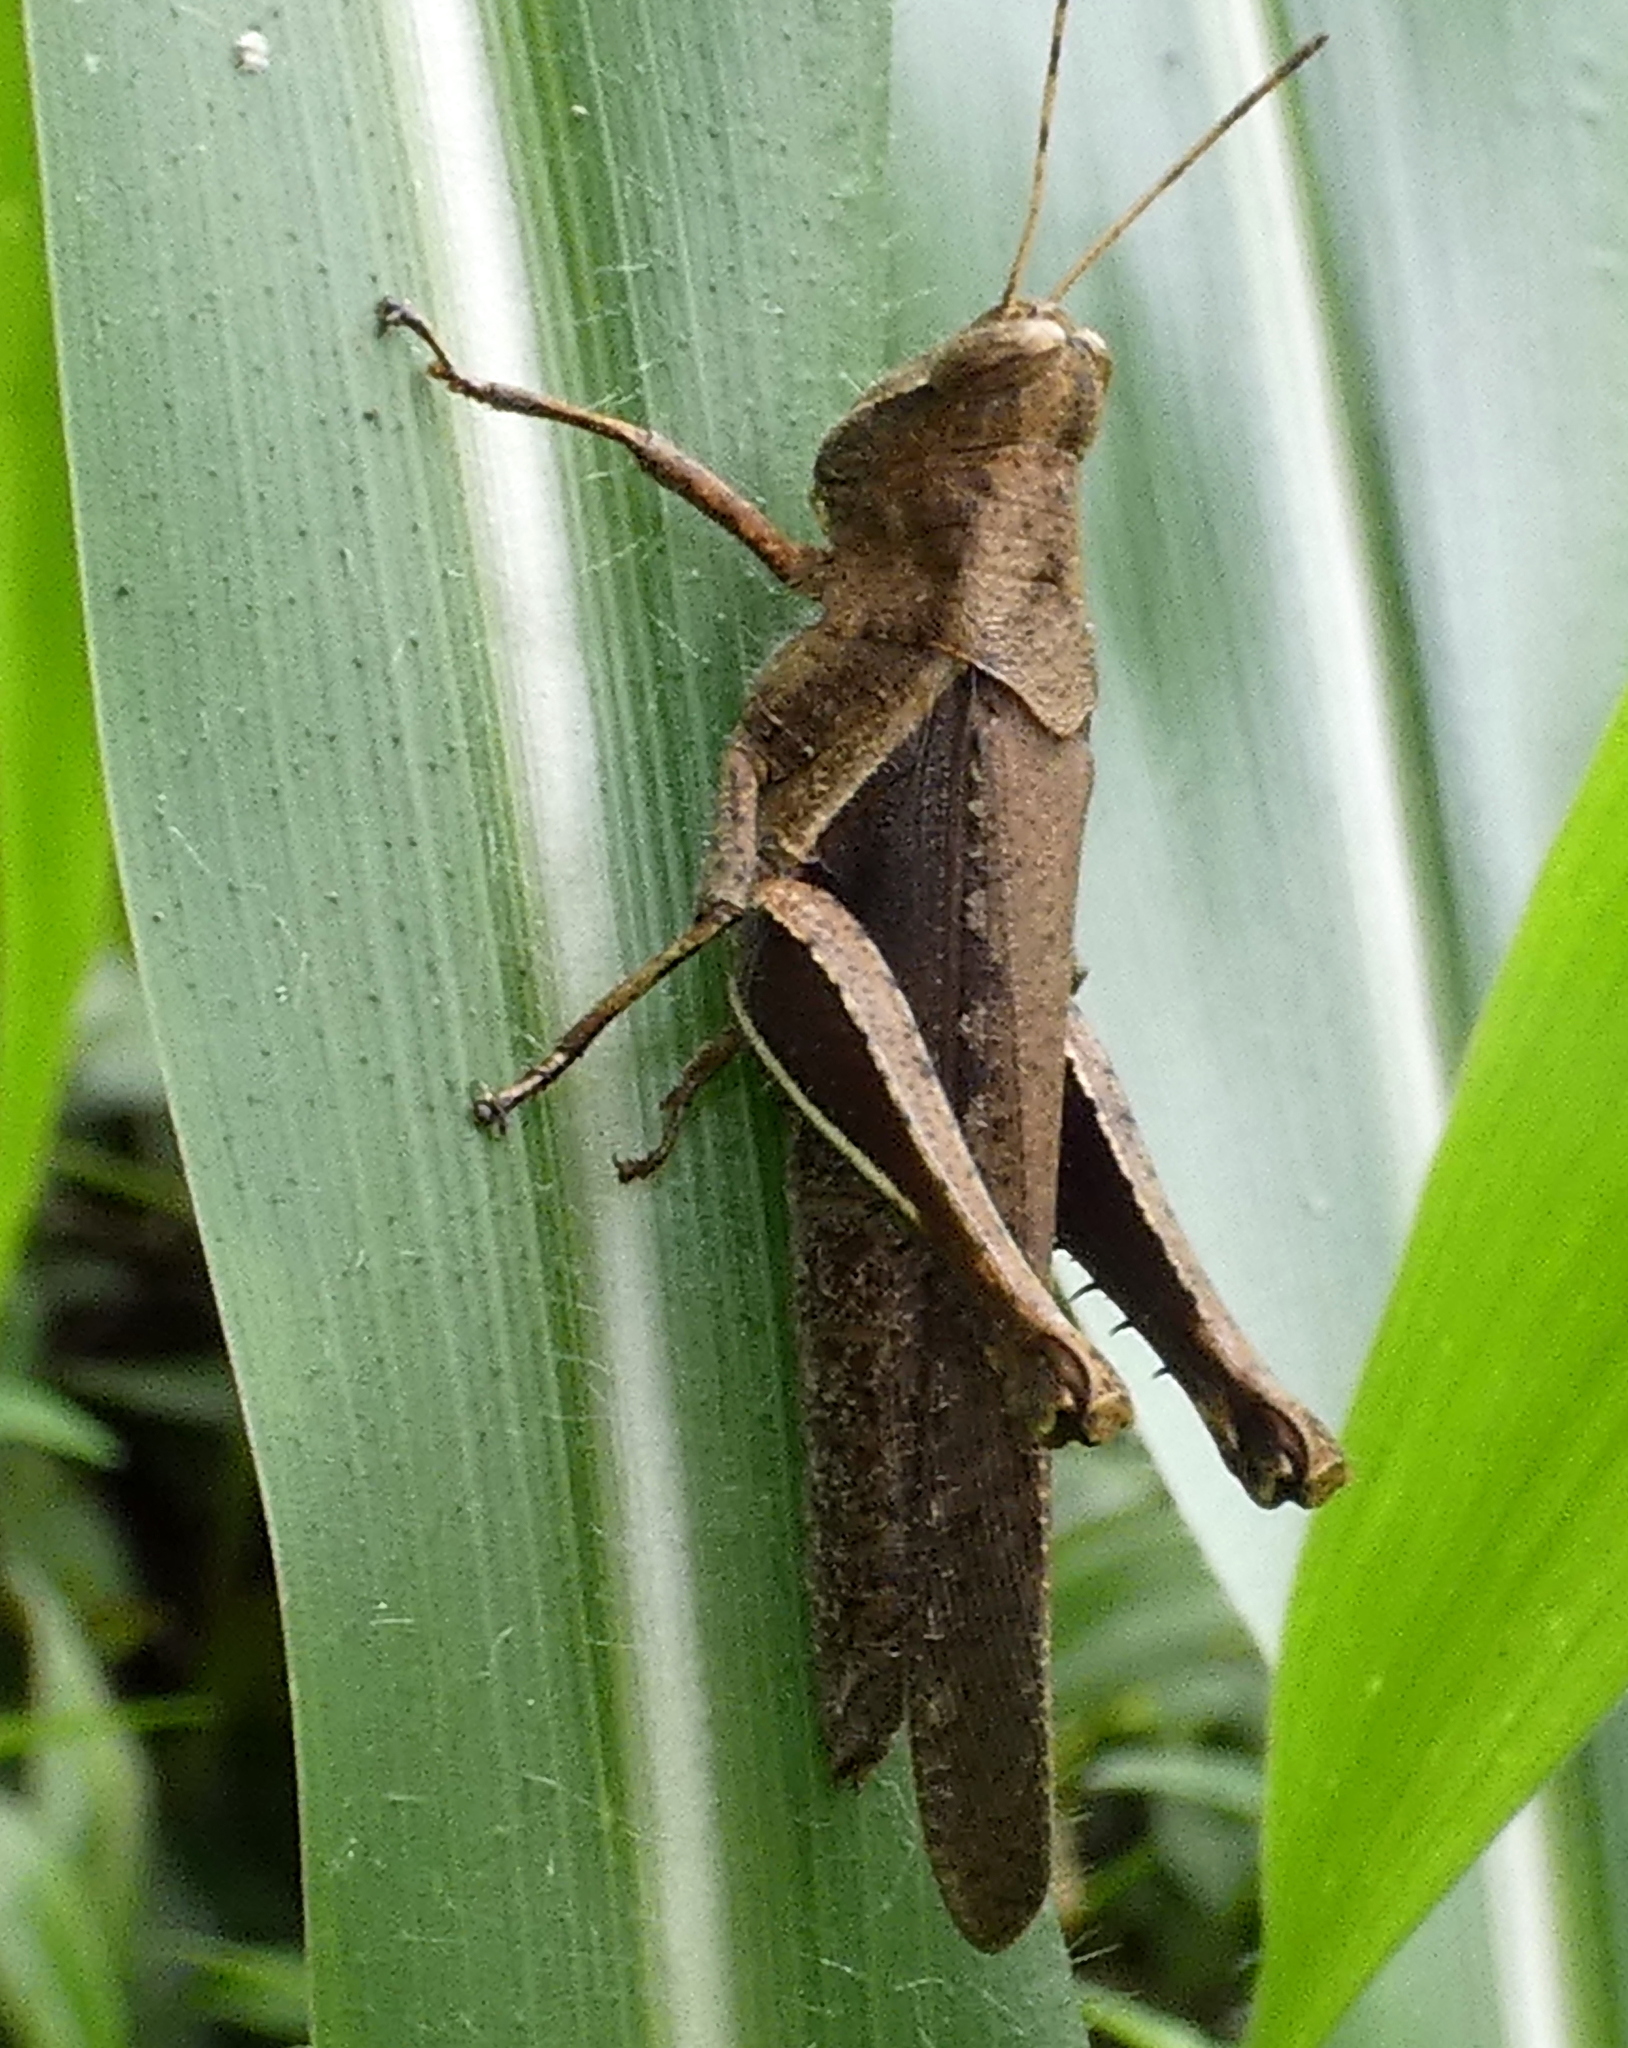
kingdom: Animalia
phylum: Arthropoda
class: Insecta
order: Orthoptera
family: Acrididae
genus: Abracris
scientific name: Abracris flavolineata
